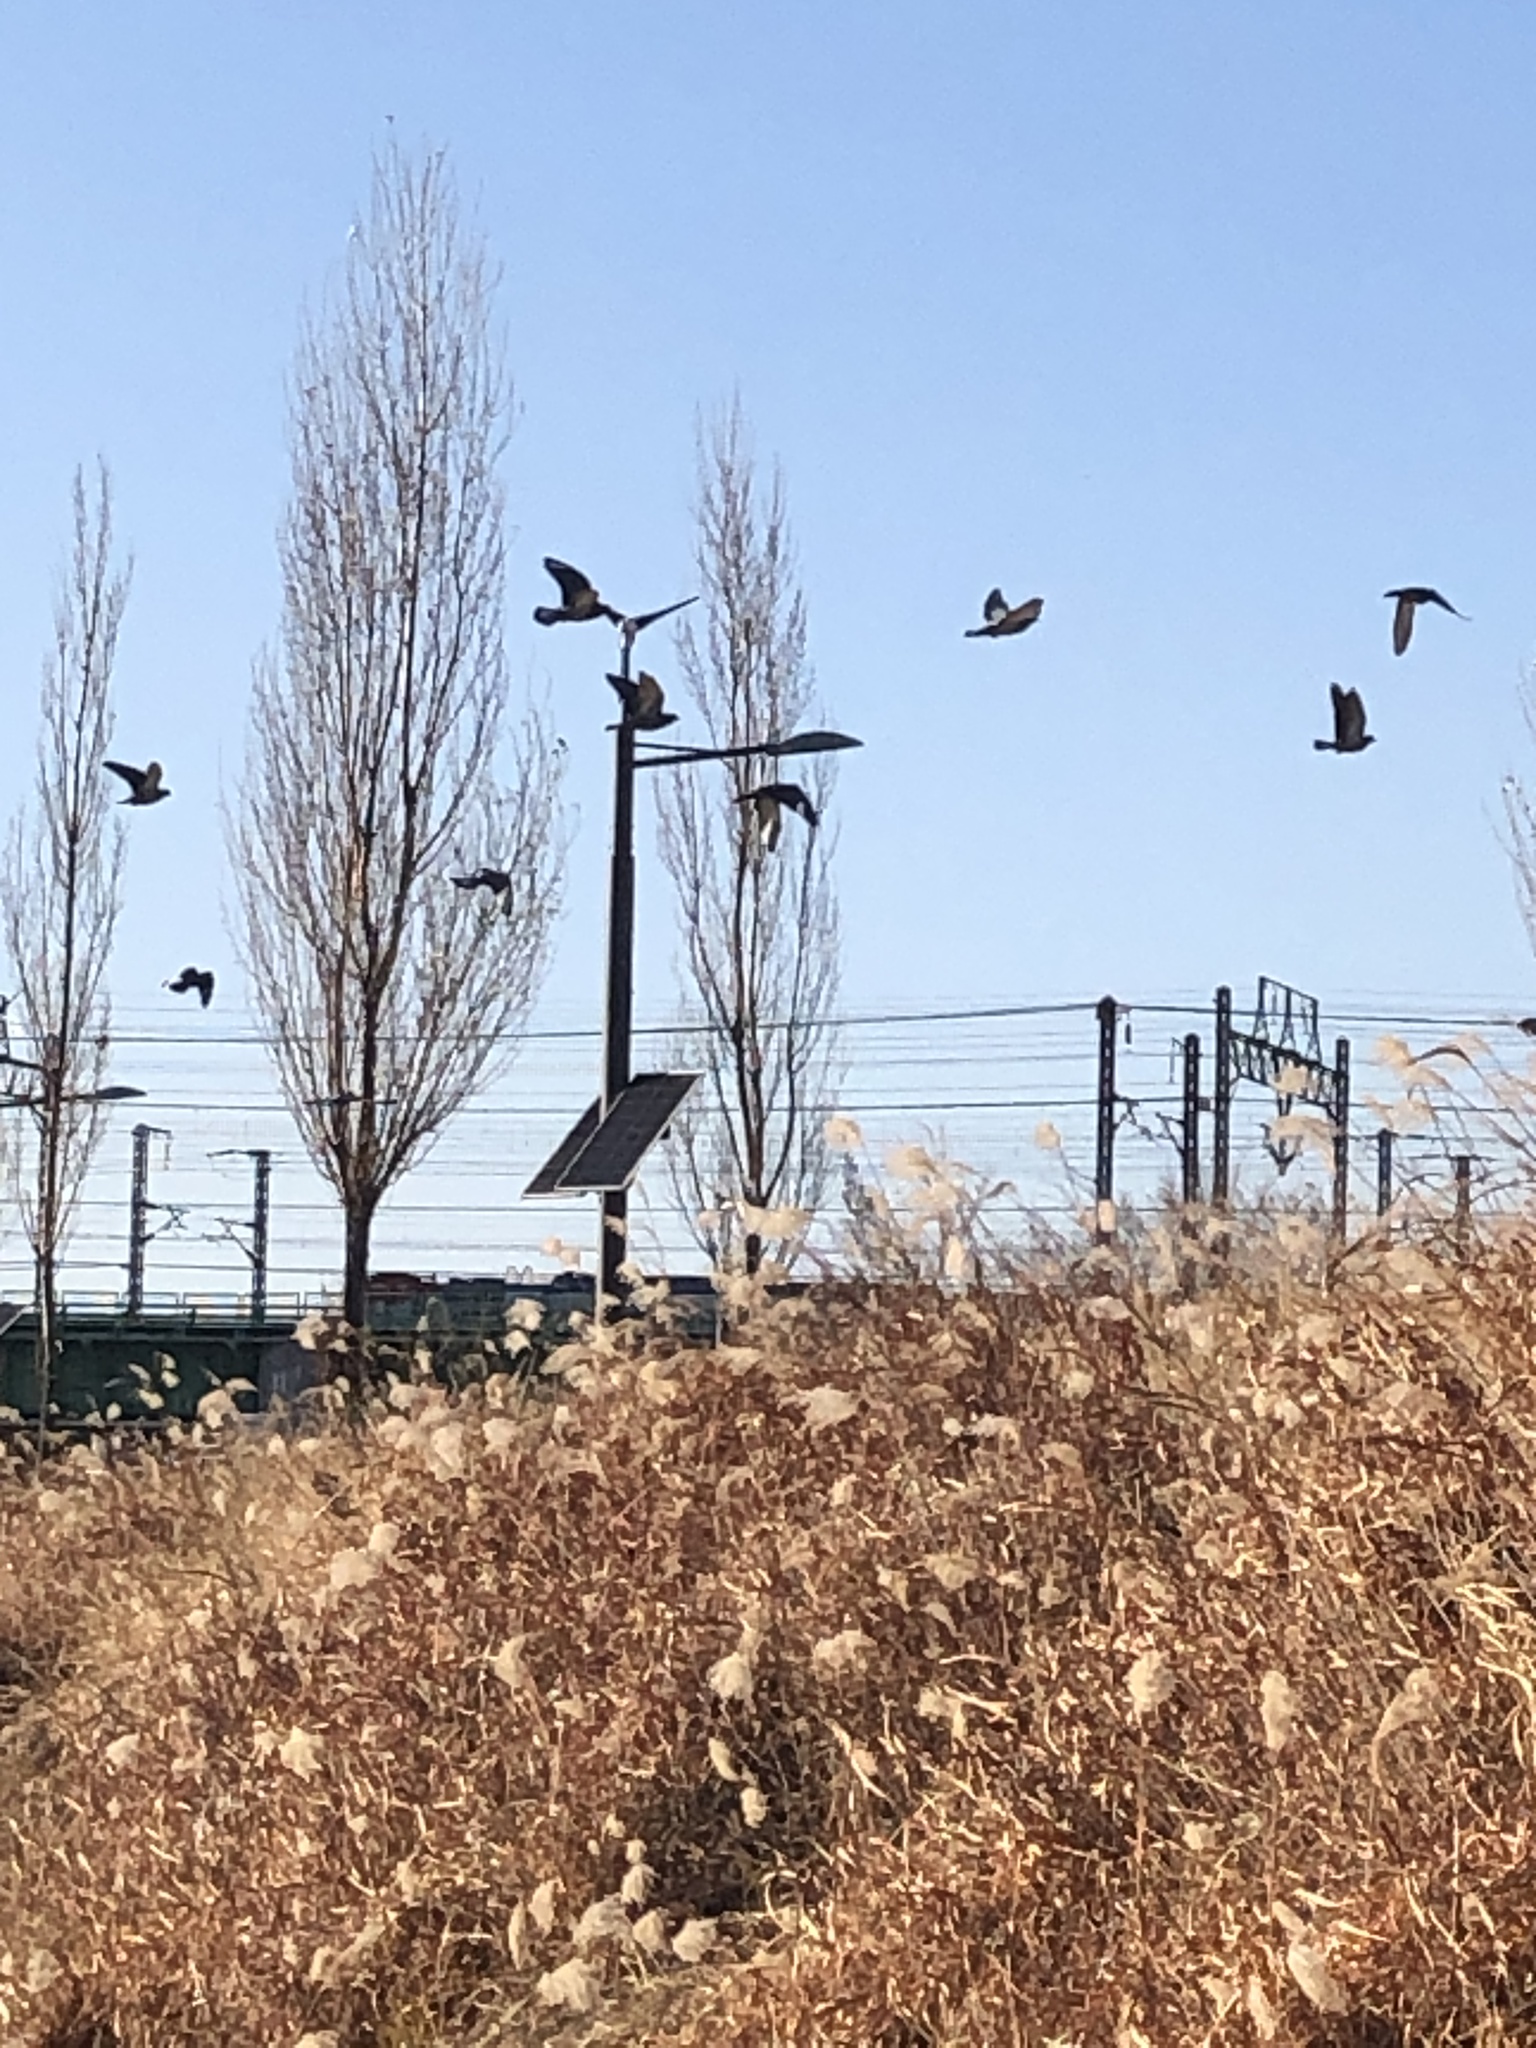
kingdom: Animalia
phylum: Chordata
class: Aves
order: Columbiformes
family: Columbidae
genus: Columba
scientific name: Columba livia
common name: Rock pigeon
